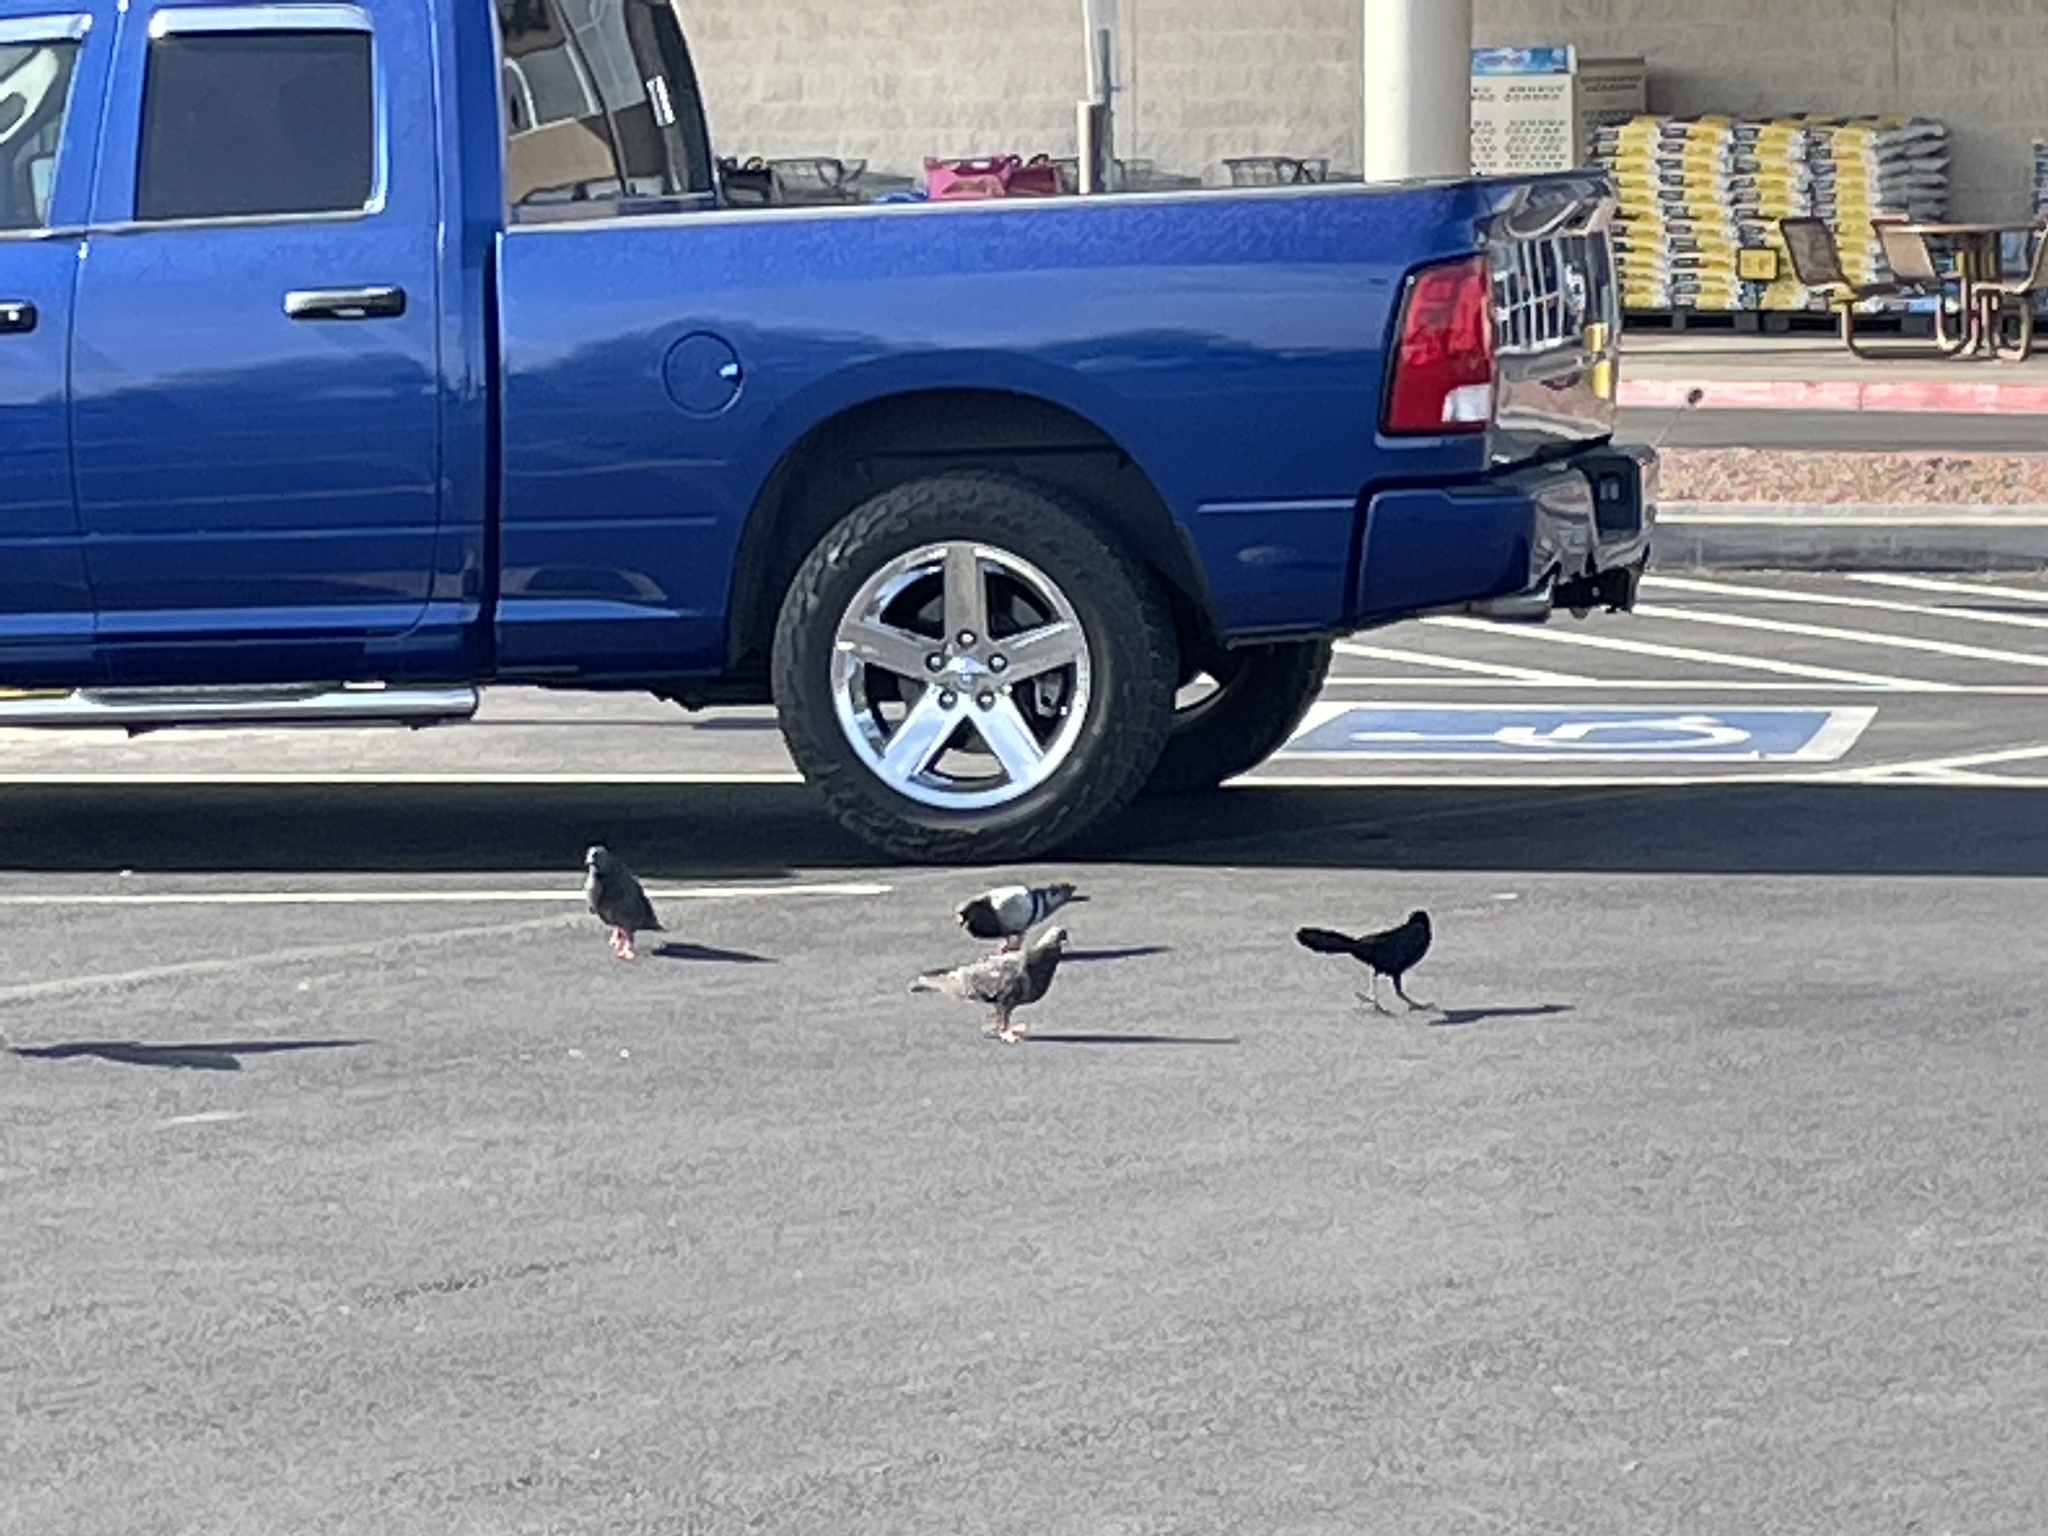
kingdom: Animalia
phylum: Chordata
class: Aves
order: Passeriformes
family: Icteridae
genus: Quiscalus
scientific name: Quiscalus mexicanus
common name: Great-tailed grackle
